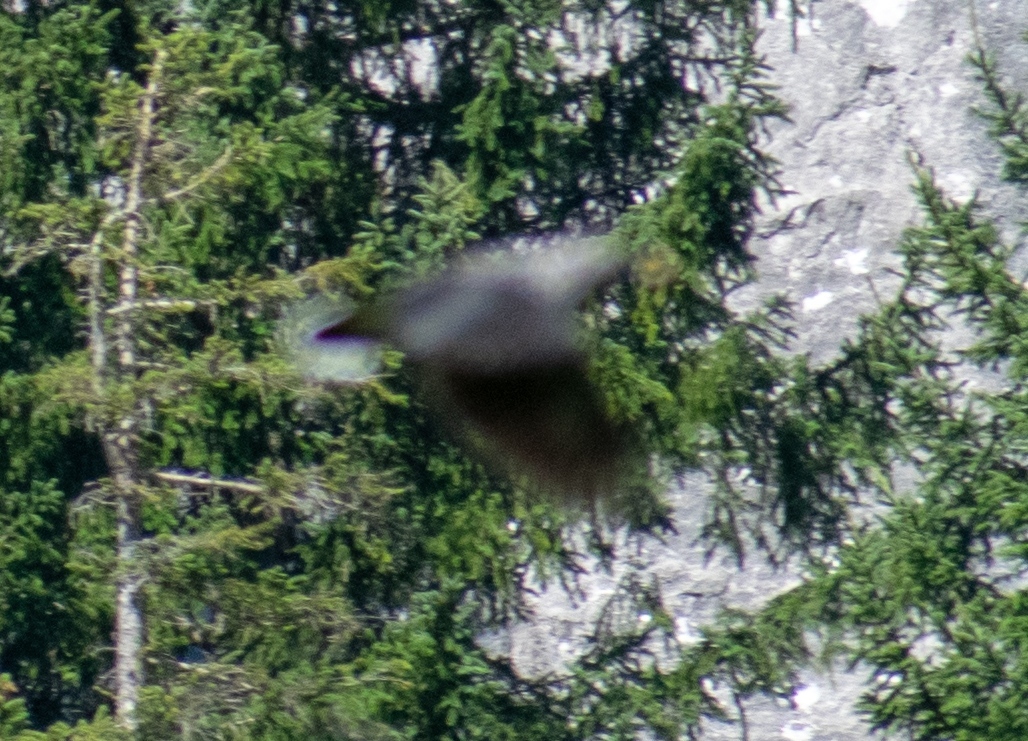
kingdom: Animalia
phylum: Chordata
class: Aves
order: Passeriformes
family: Corvidae
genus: Nucifraga
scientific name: Nucifraga caryocatactes
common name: Spotted nutcracker
